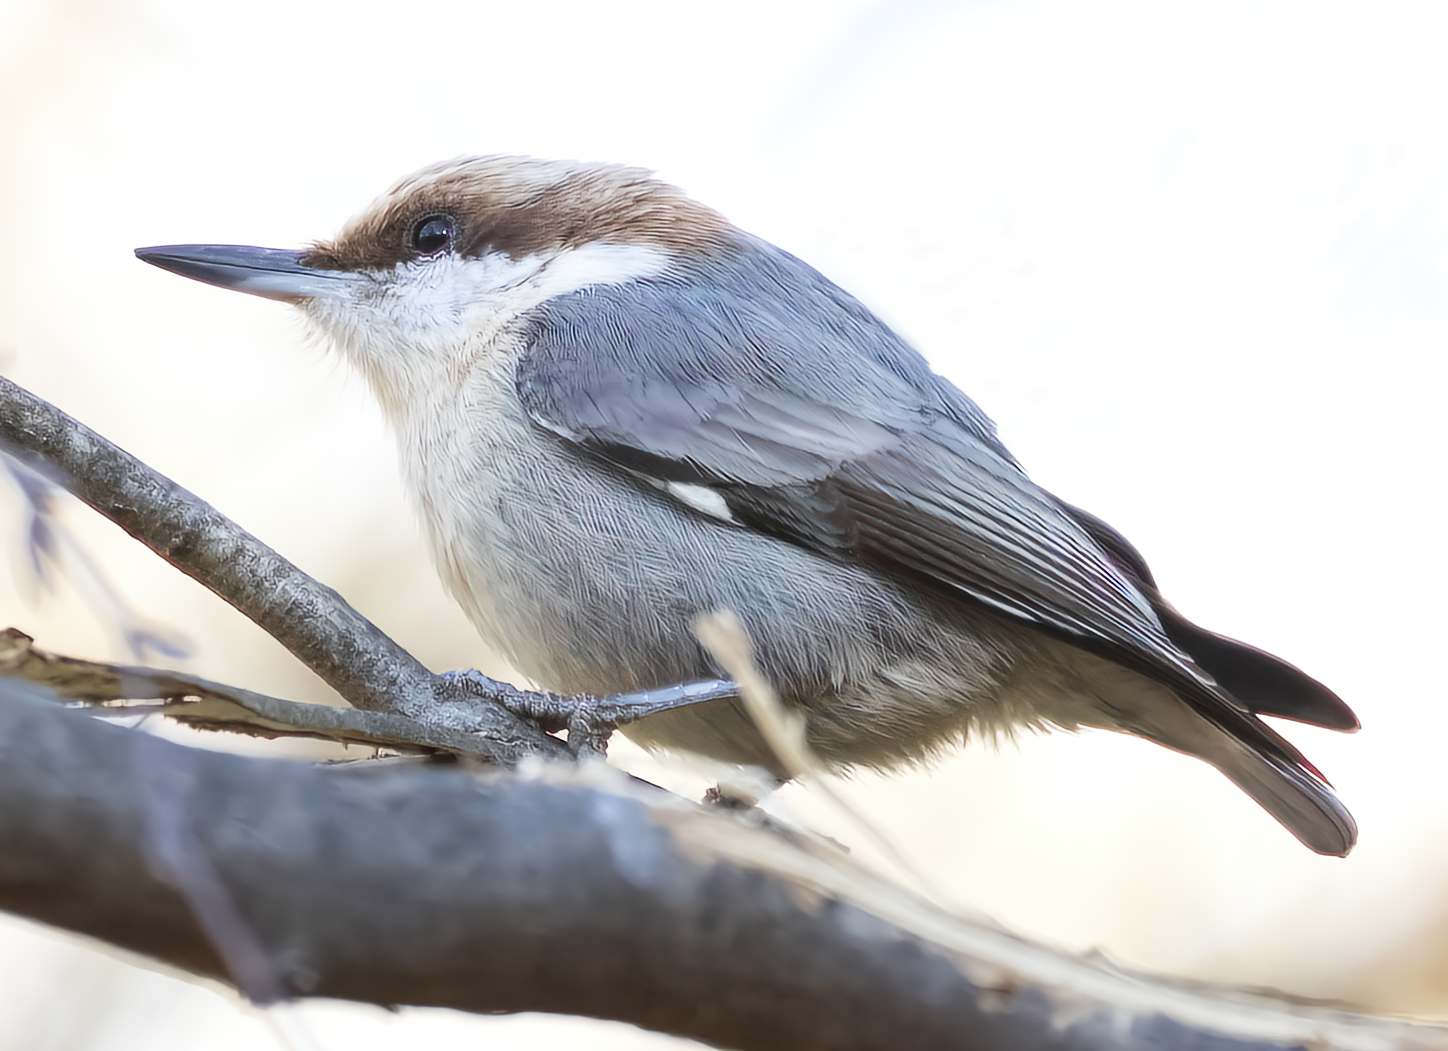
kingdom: Animalia
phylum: Chordata
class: Aves
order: Passeriformes
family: Sittidae
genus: Sitta
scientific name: Sitta pusilla
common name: Brown-headed nuthatch
